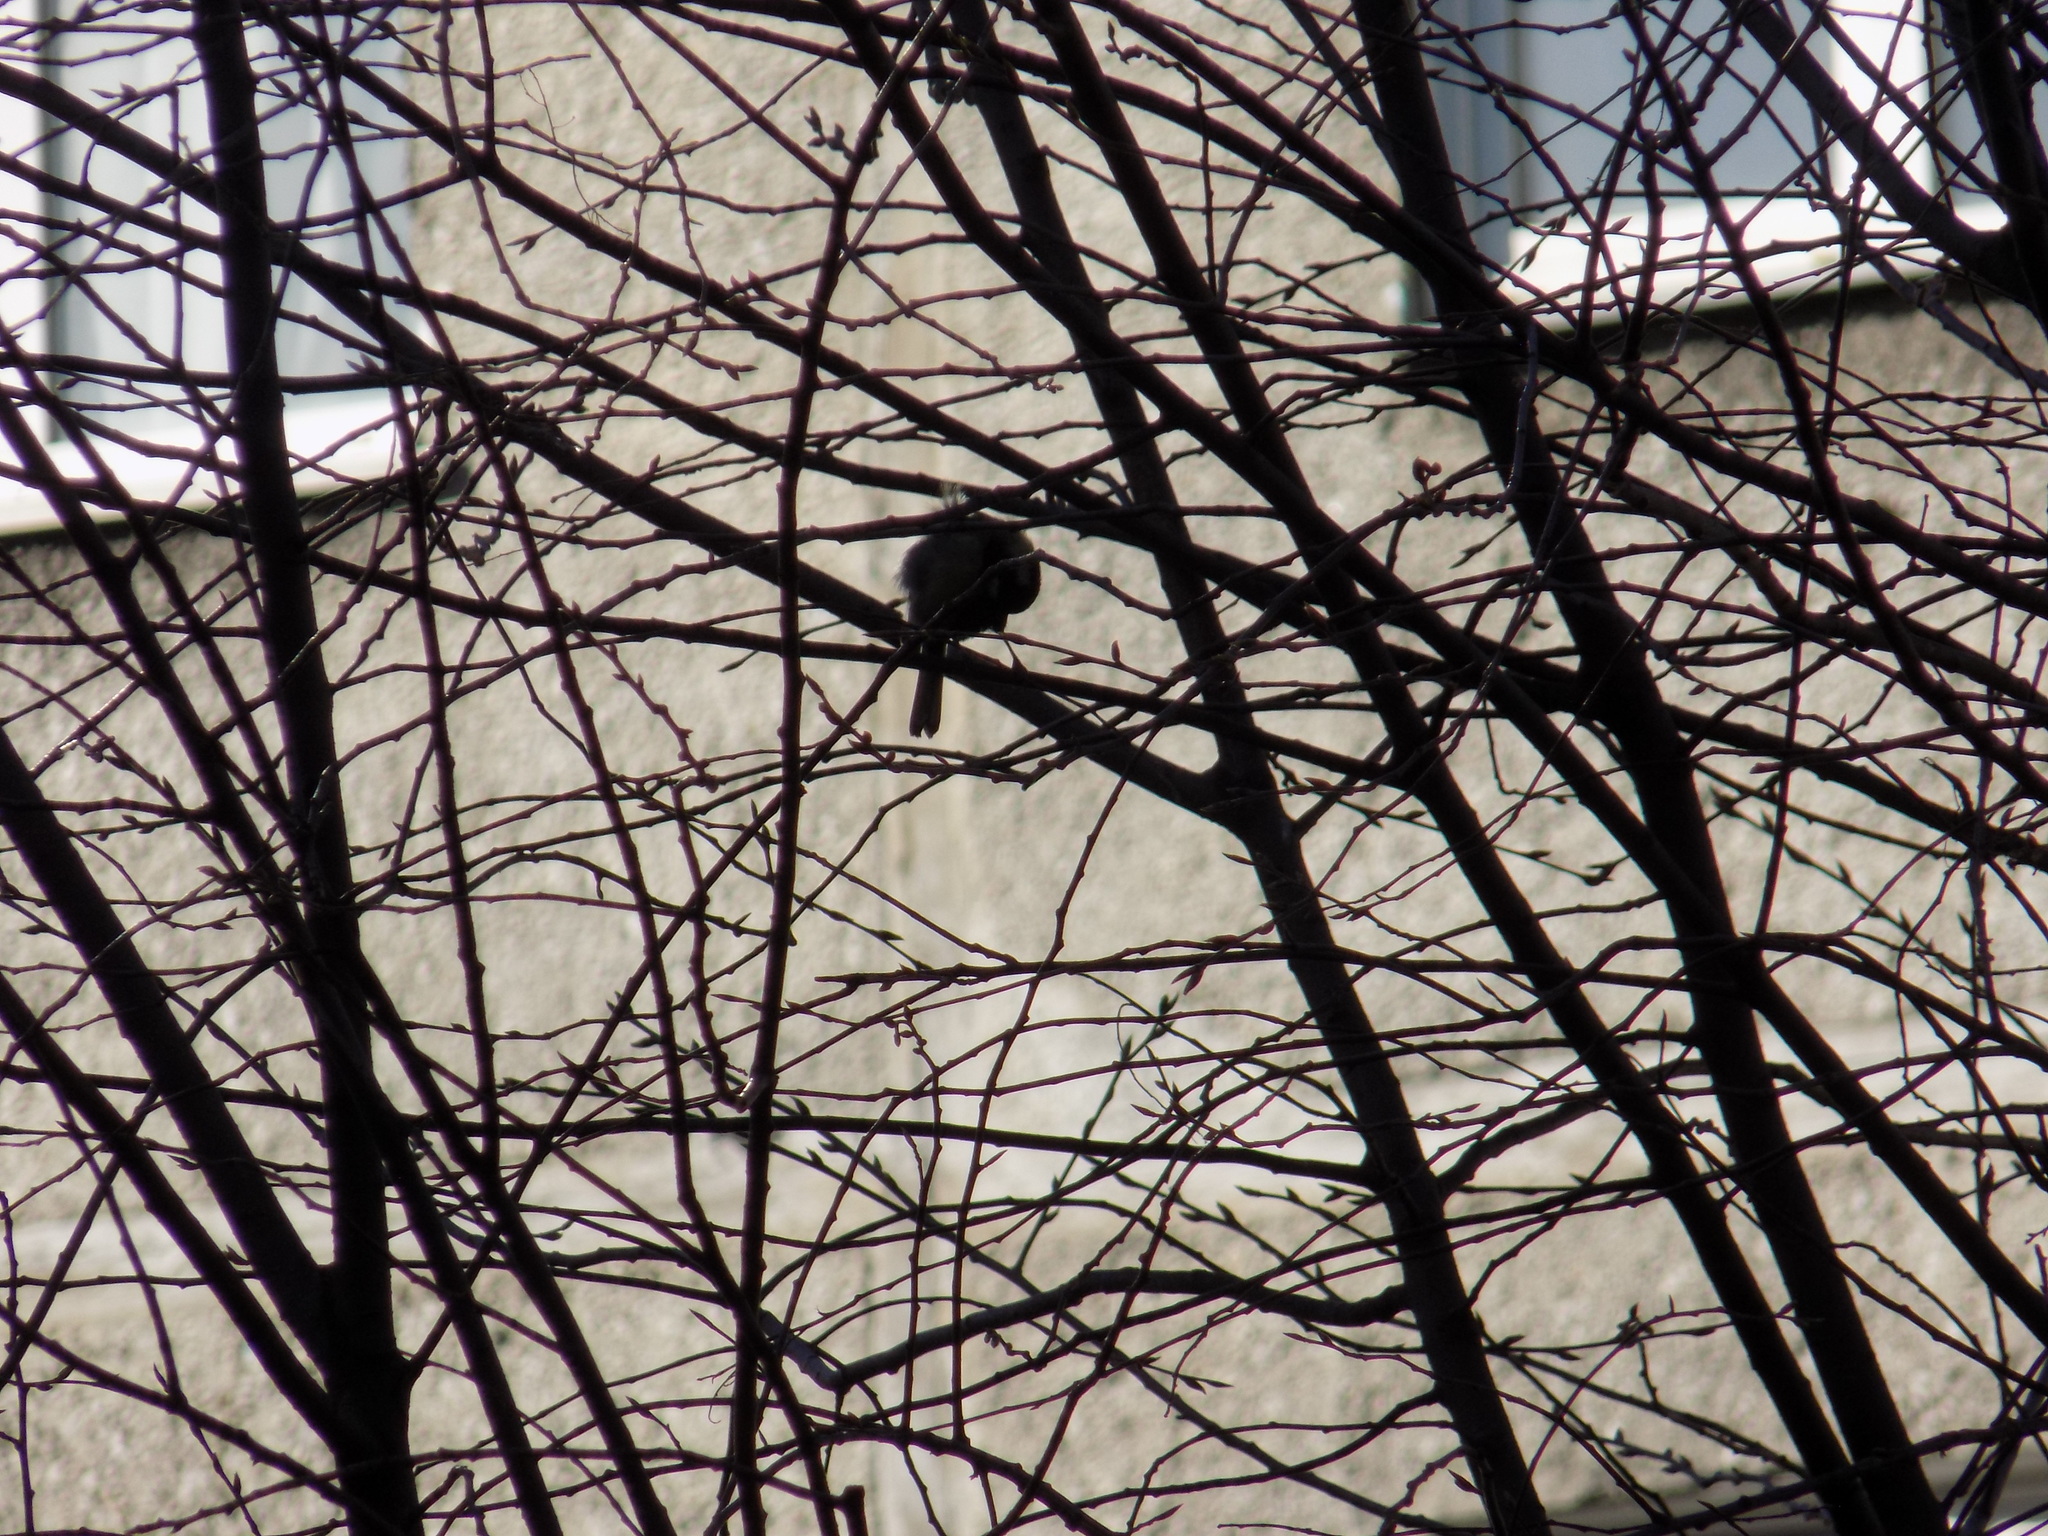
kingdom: Animalia
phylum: Chordata
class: Aves
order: Passeriformes
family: Paridae
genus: Parus
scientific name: Parus major
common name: Great tit
